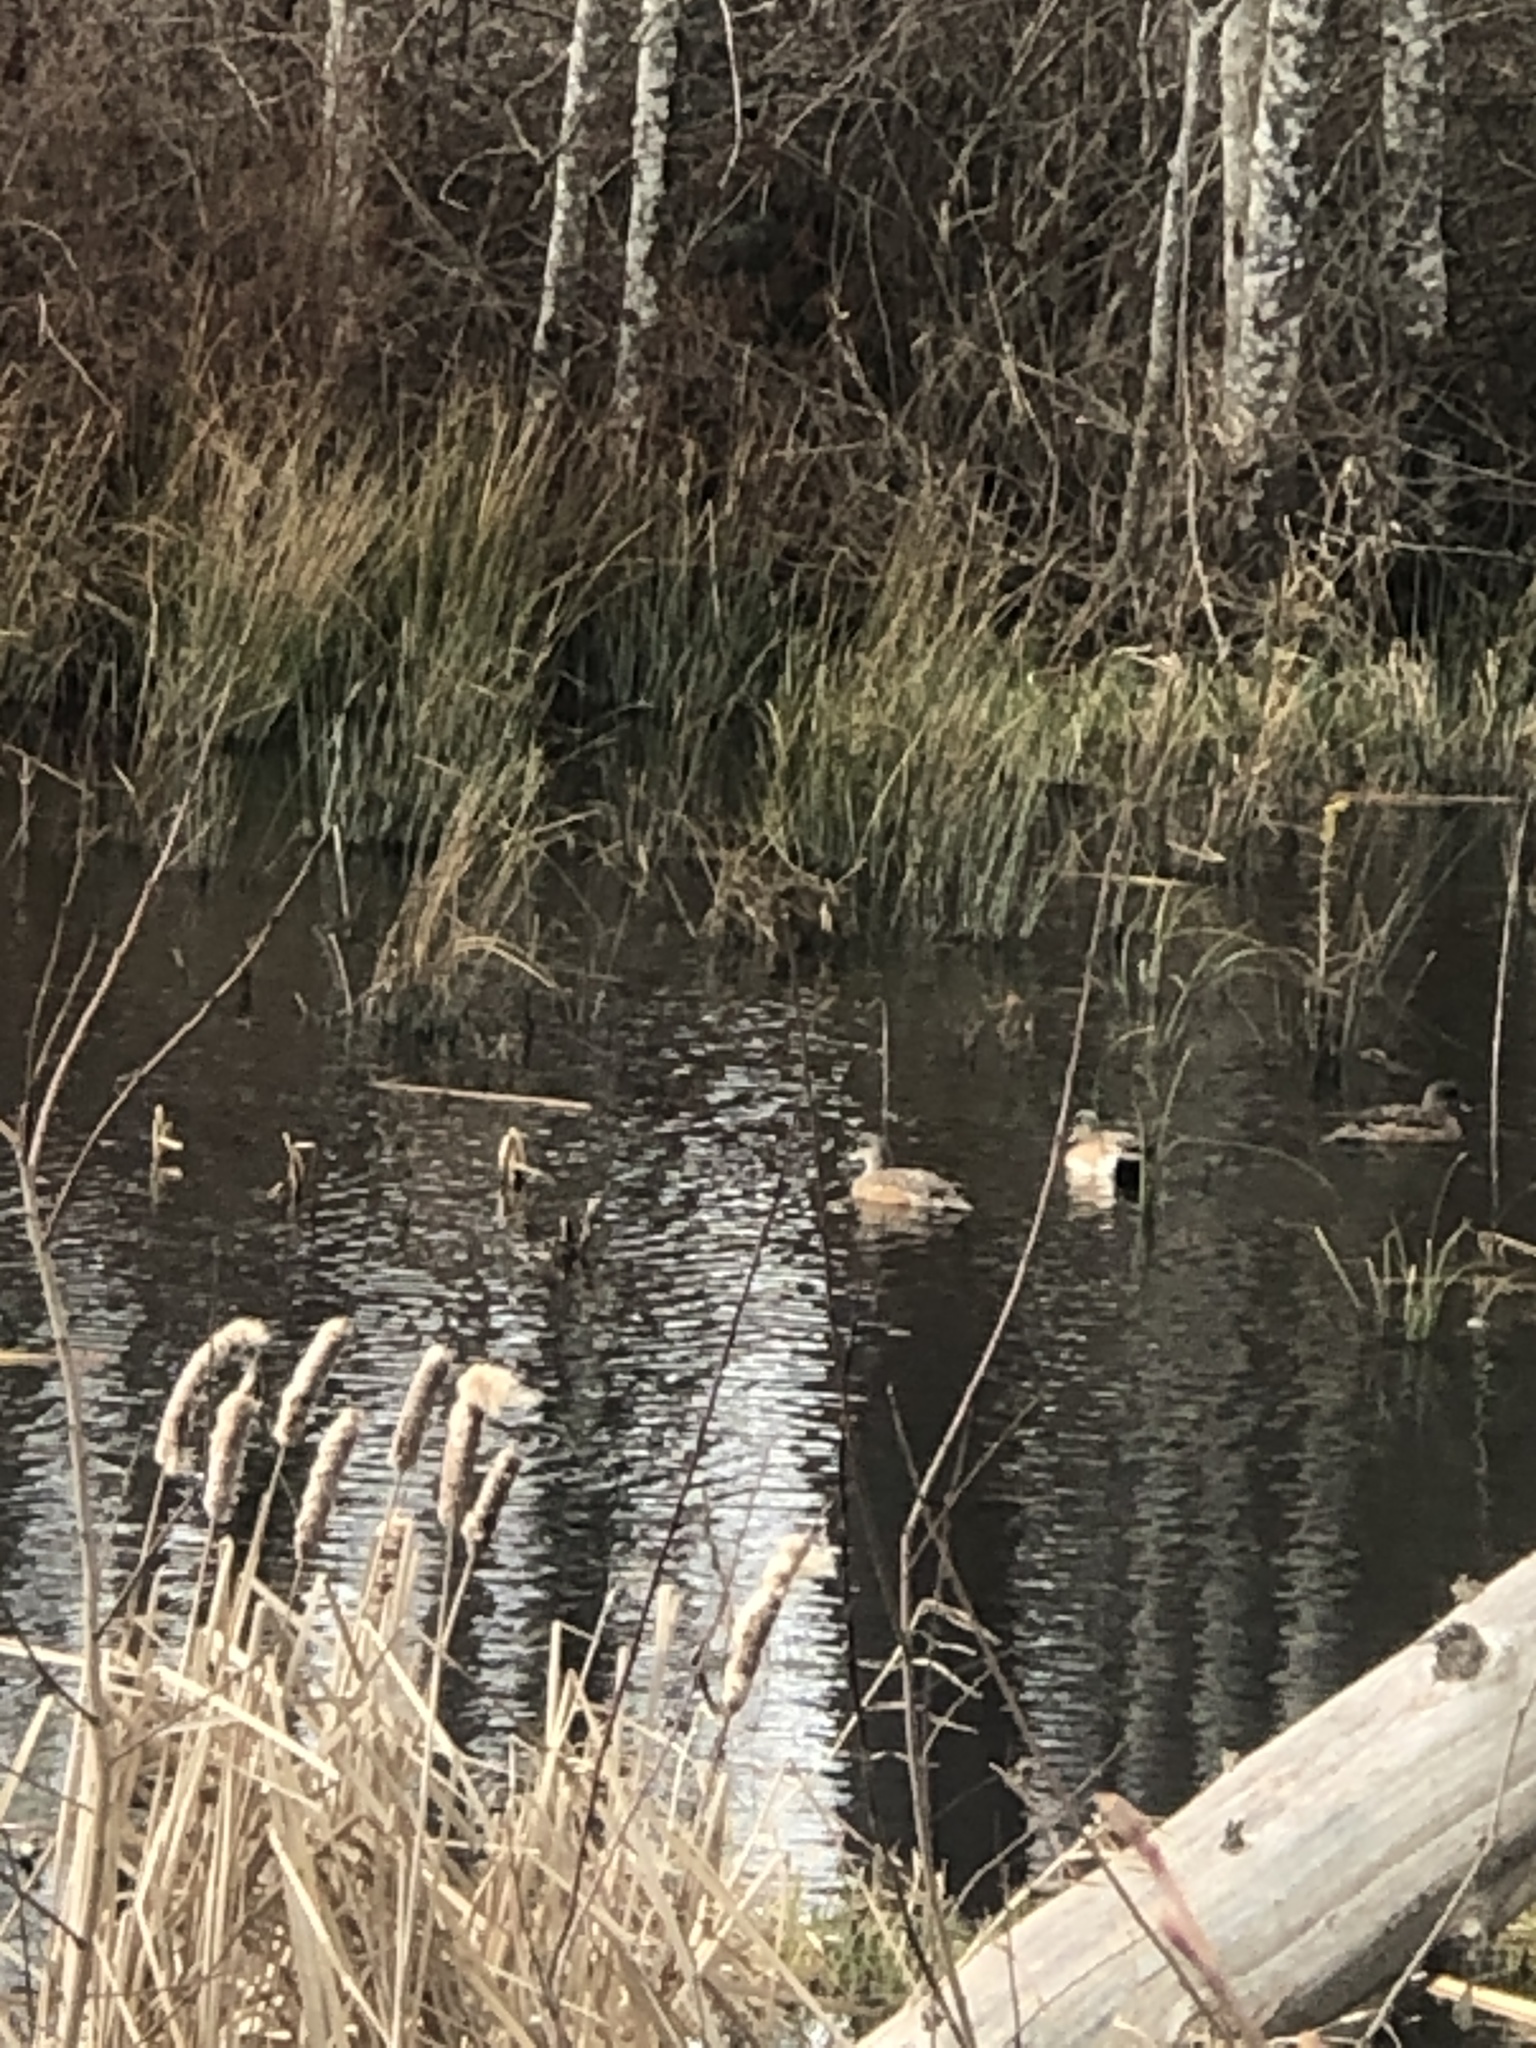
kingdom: Animalia
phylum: Chordata
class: Aves
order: Anseriformes
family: Anatidae
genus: Mareca
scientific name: Mareca americana
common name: American wigeon
